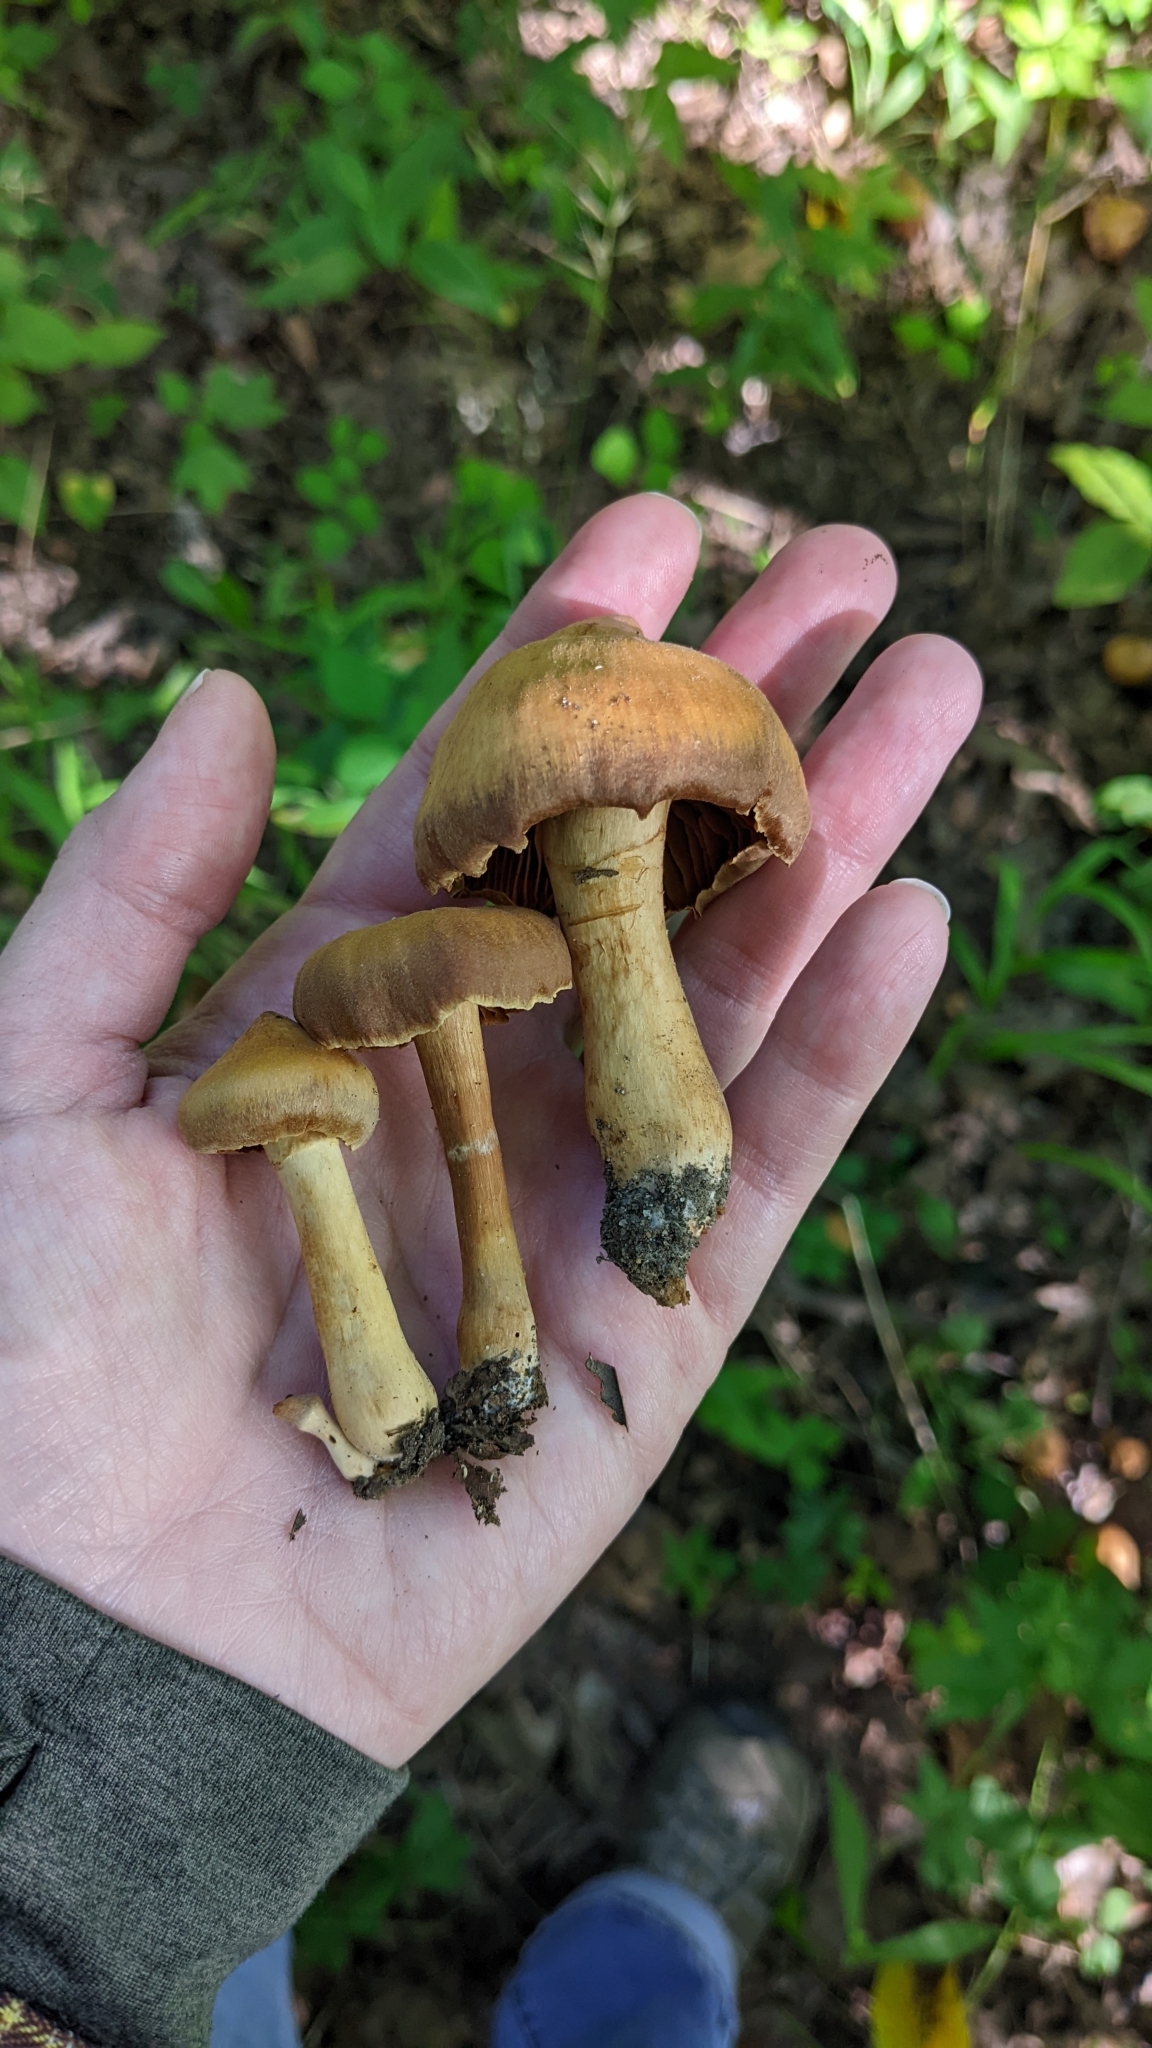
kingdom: Fungi
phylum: Basidiomycota
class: Agaricomycetes
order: Agaricales
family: Cortinariaceae
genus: Cortinarius
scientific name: Cortinarius
